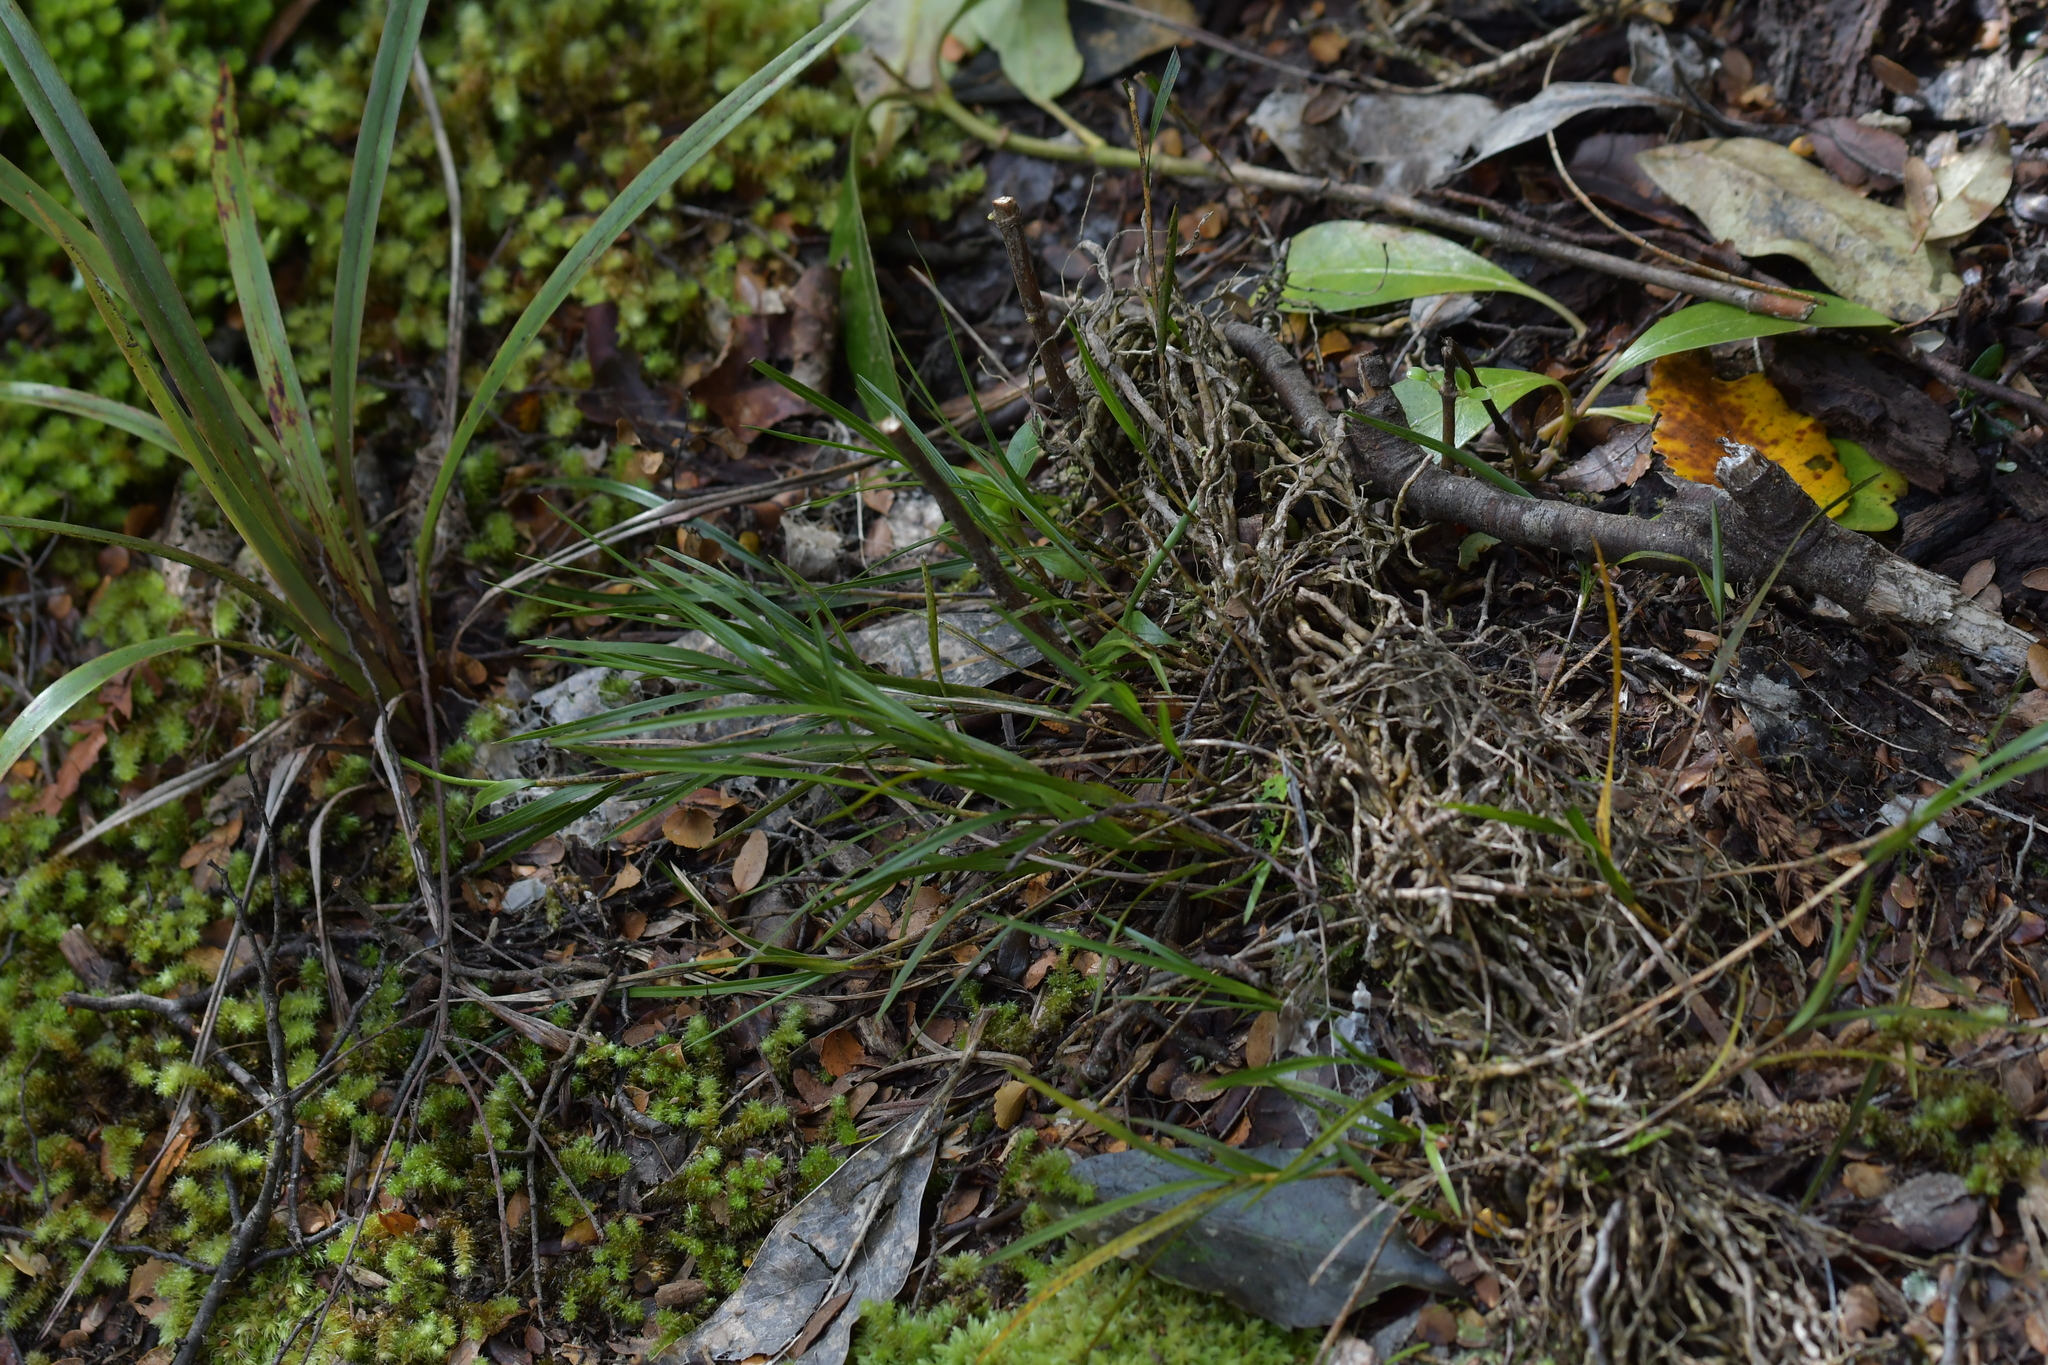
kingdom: Plantae
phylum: Tracheophyta
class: Liliopsida
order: Asparagales
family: Orchidaceae
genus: Earina
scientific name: Earina mucronata
